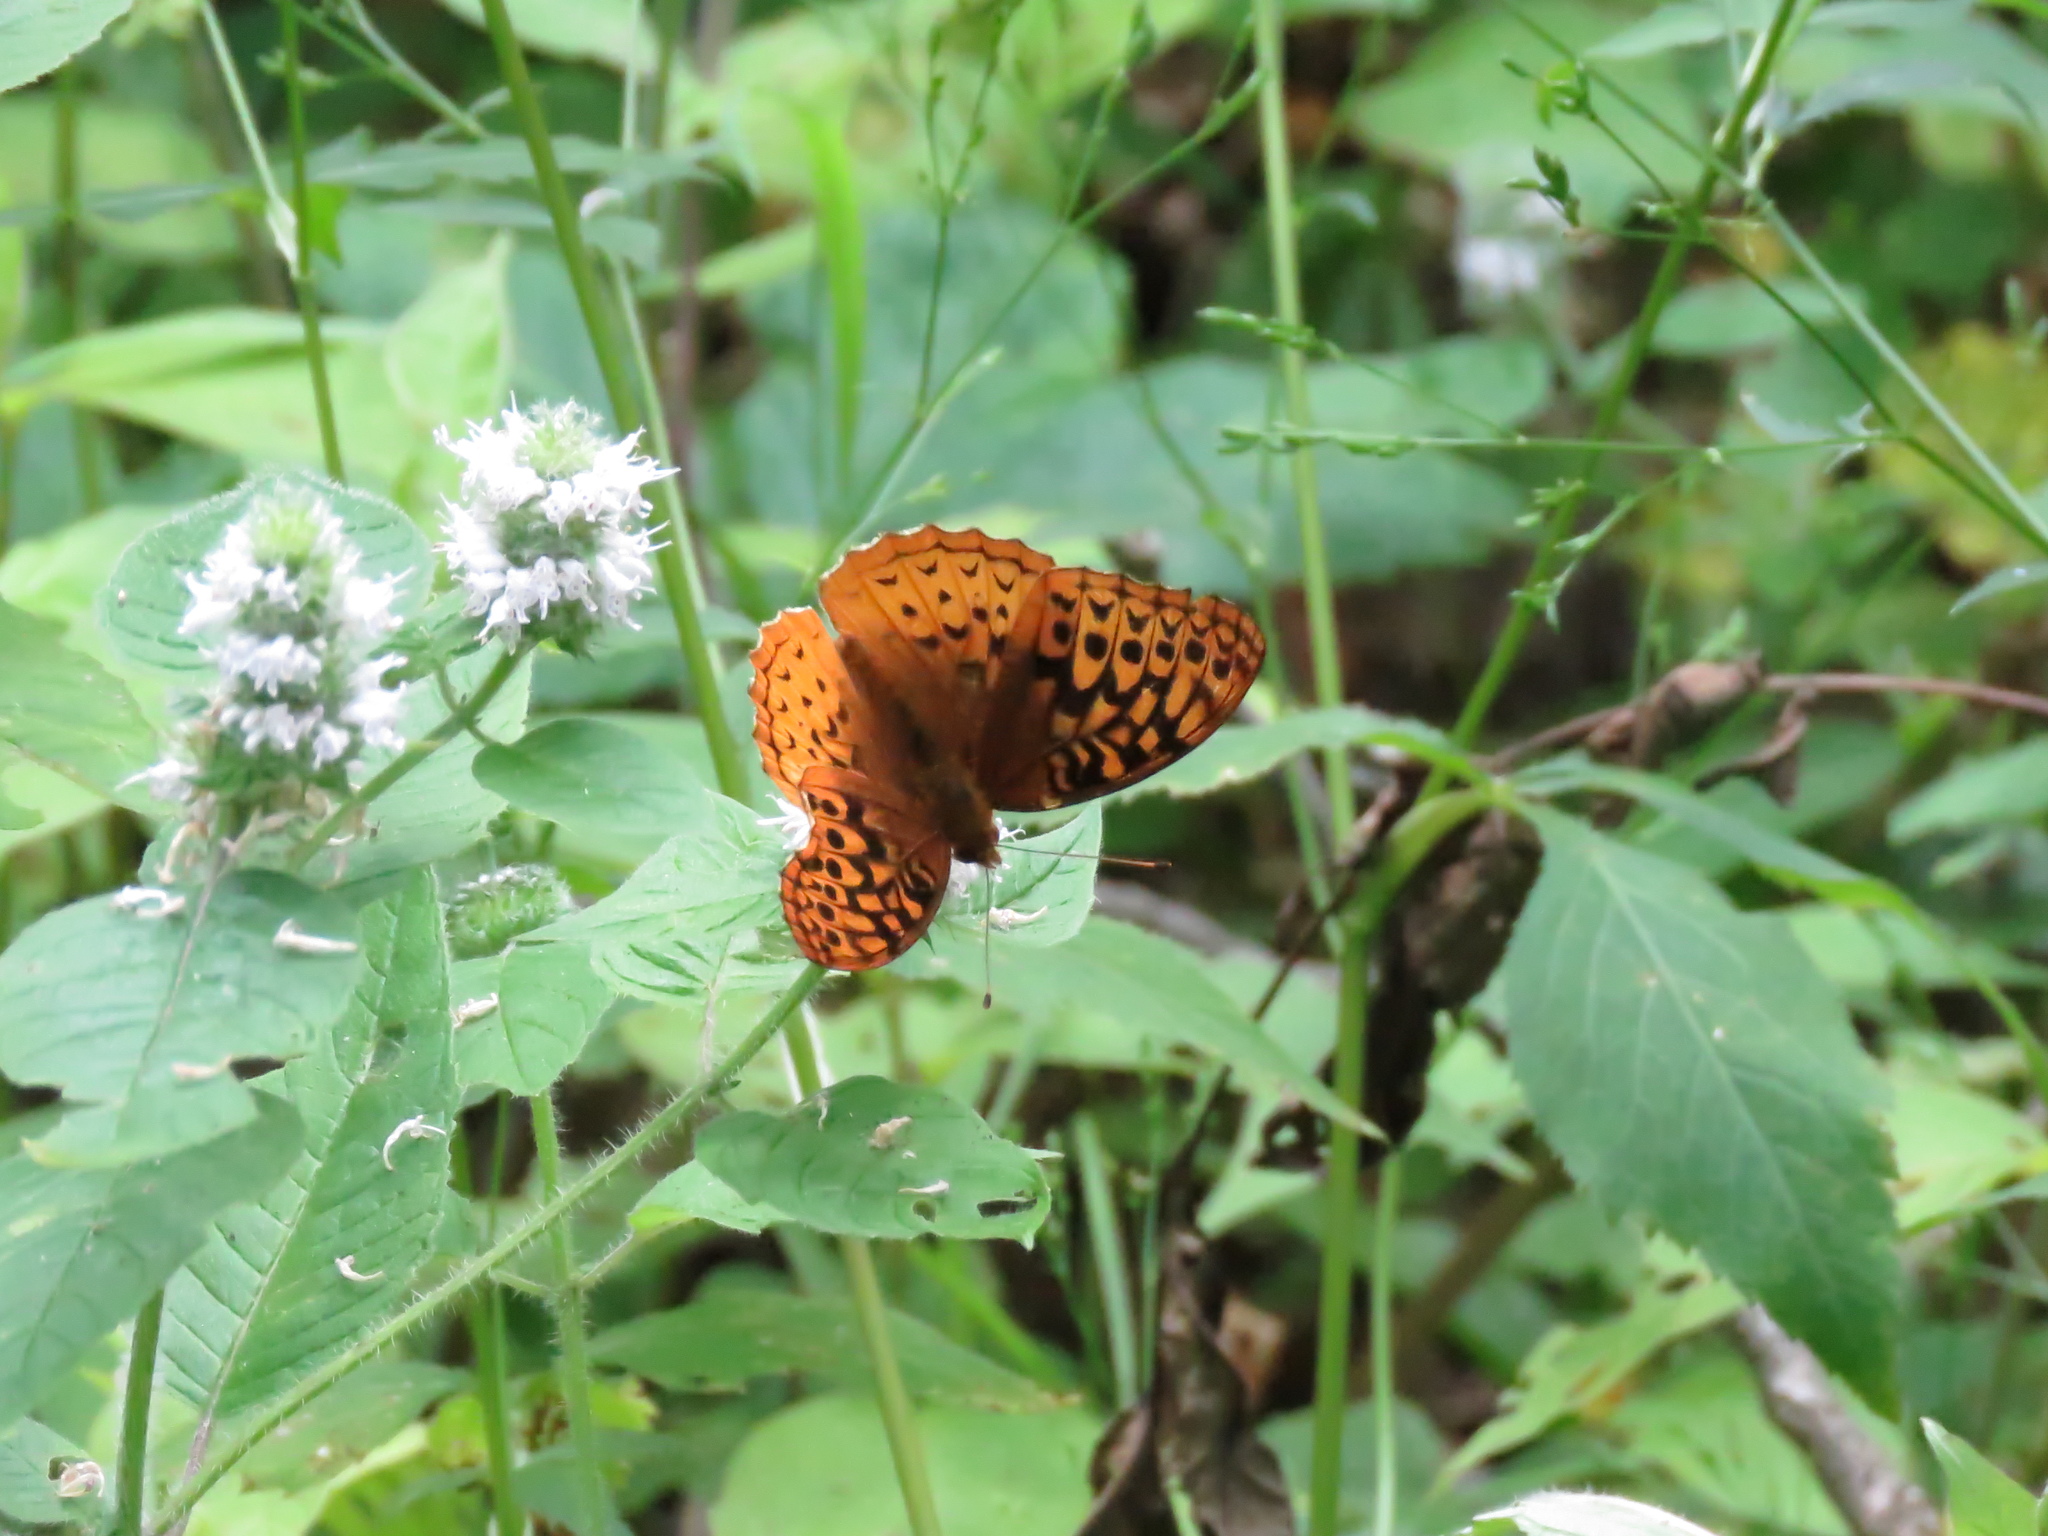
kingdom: Animalia
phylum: Arthropoda
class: Insecta
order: Lepidoptera
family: Nymphalidae
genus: Speyeria
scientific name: Speyeria cybele
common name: Great spangled fritillary
